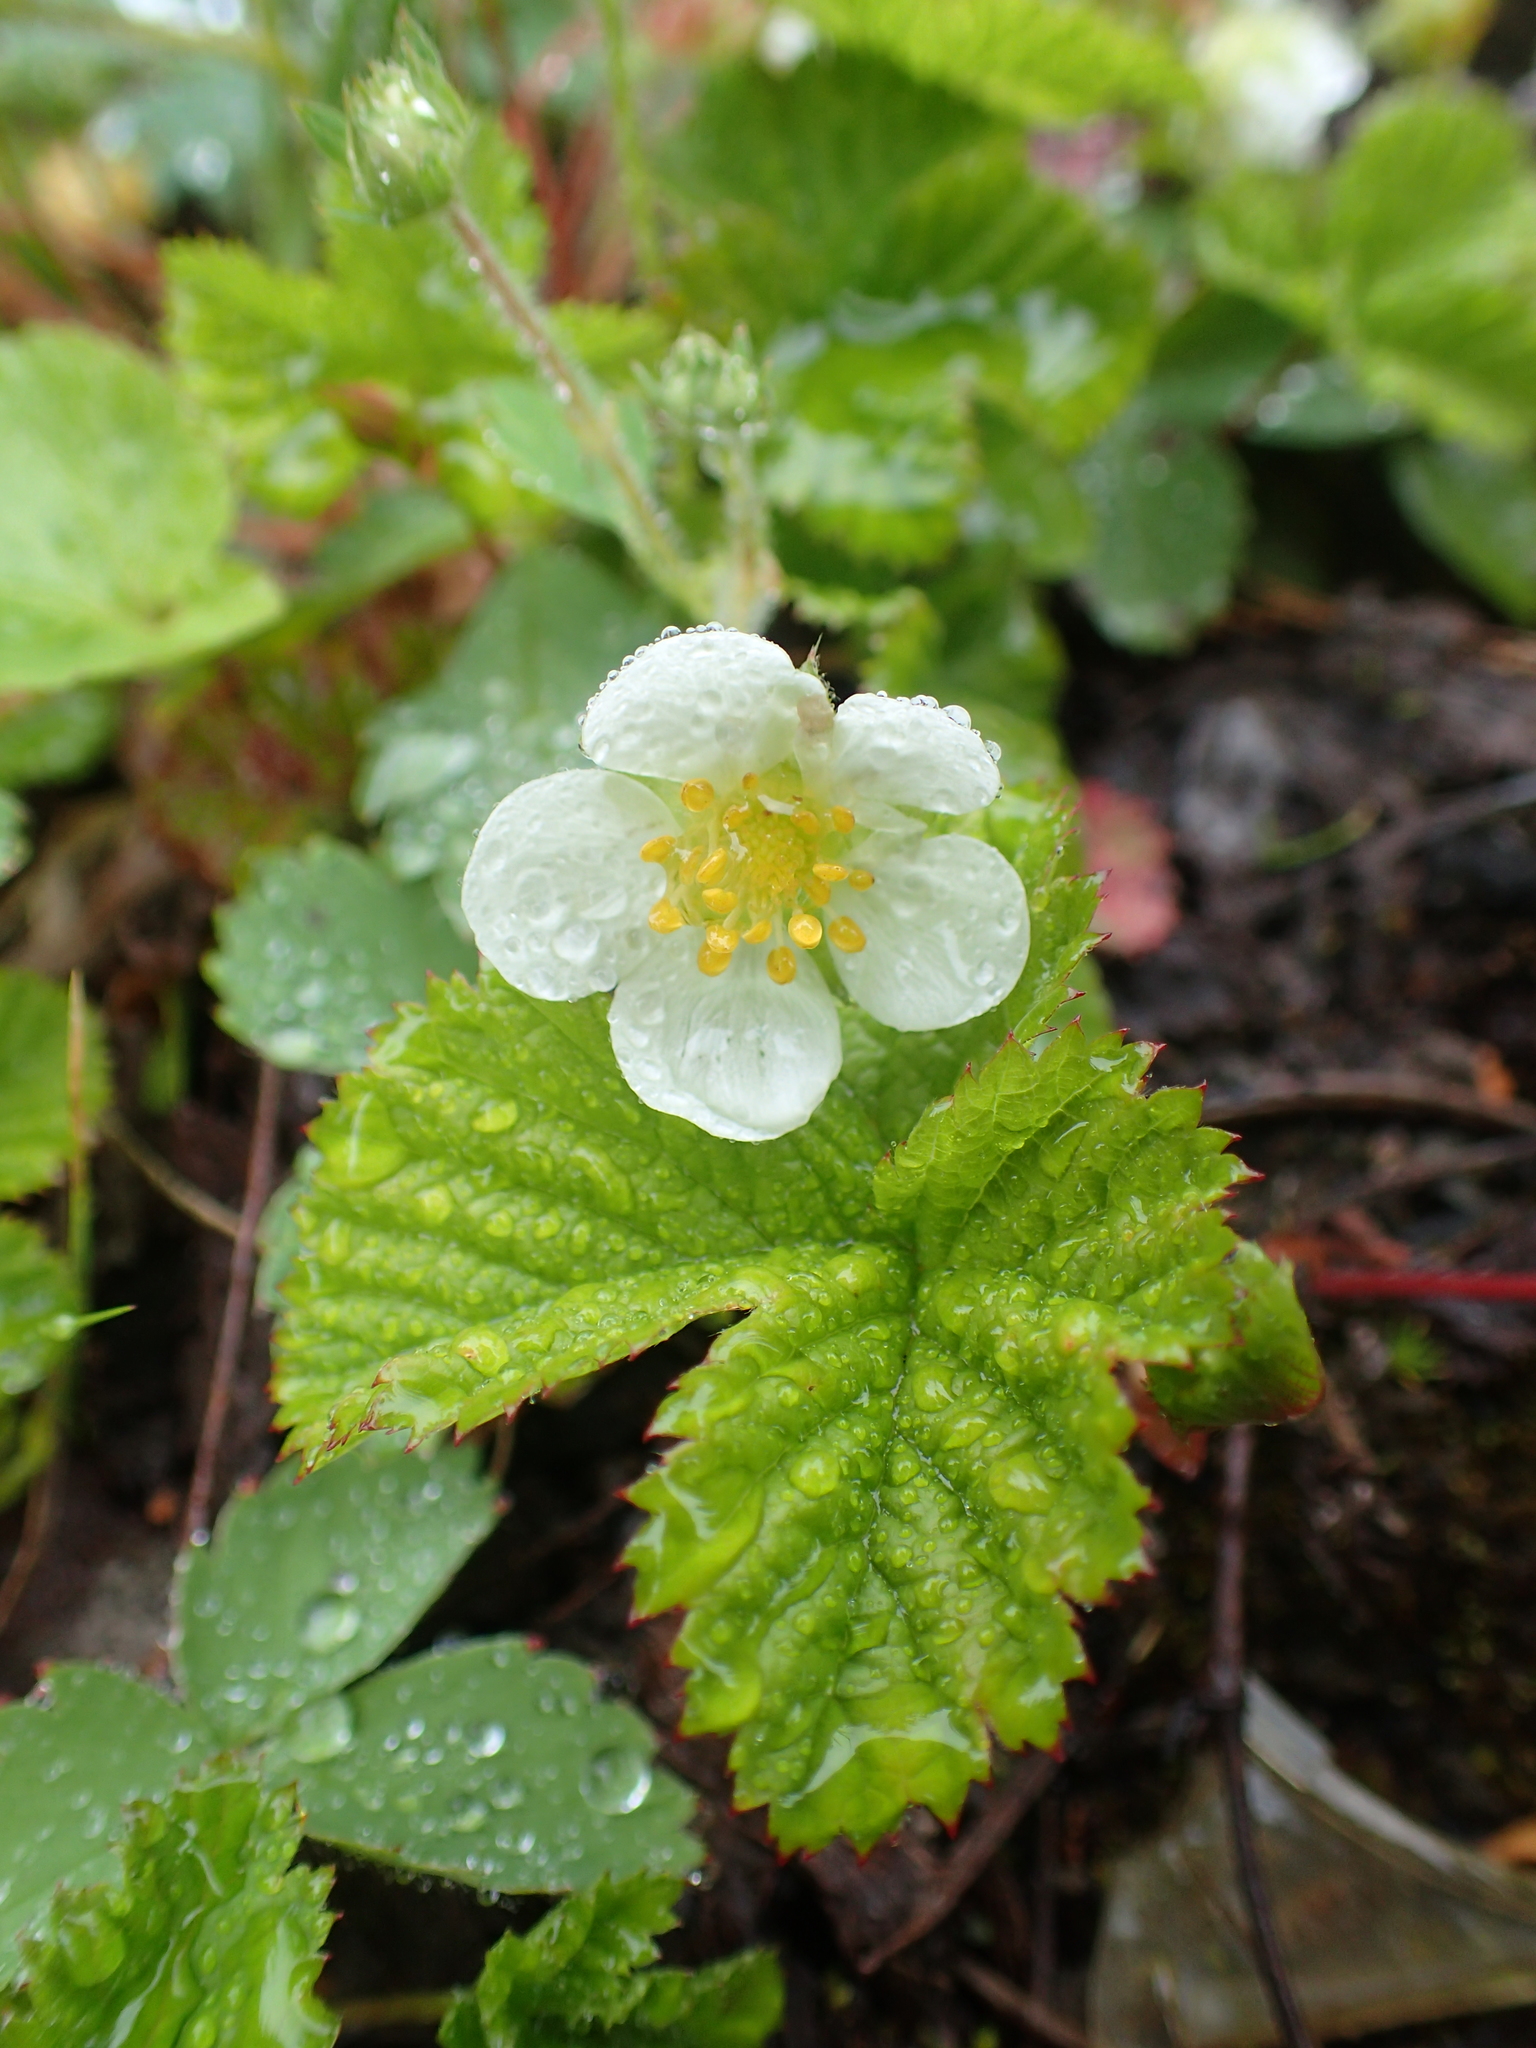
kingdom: Plantae
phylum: Tracheophyta
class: Magnoliopsida
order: Rosales
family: Rosaceae
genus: Rubus
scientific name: Rubus lasiococcus
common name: Dwarf bramble
